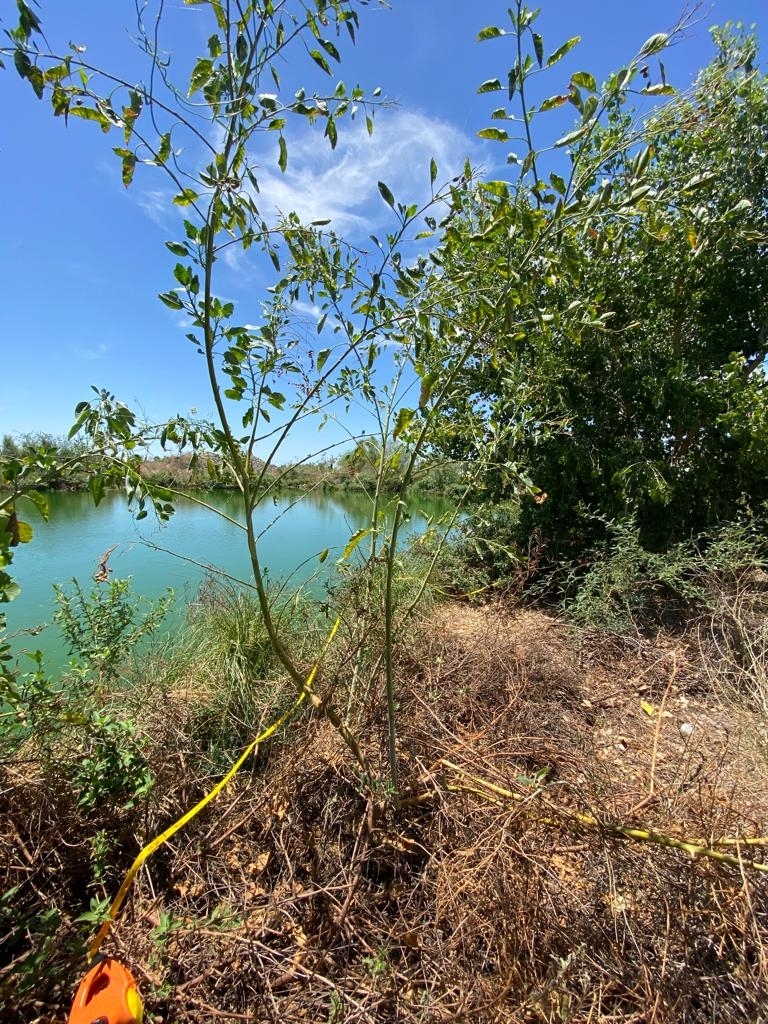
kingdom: Plantae
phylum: Tracheophyta
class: Magnoliopsida
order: Solanales
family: Solanaceae
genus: Nicotiana
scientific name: Nicotiana glauca
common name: Tree tobacco
